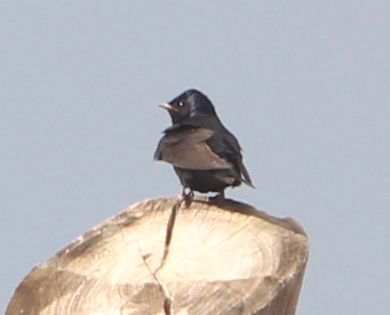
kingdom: Animalia
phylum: Chordata
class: Aves
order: Passeriformes
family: Hirundinidae
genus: Progne
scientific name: Progne elegans
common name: Southern martin
